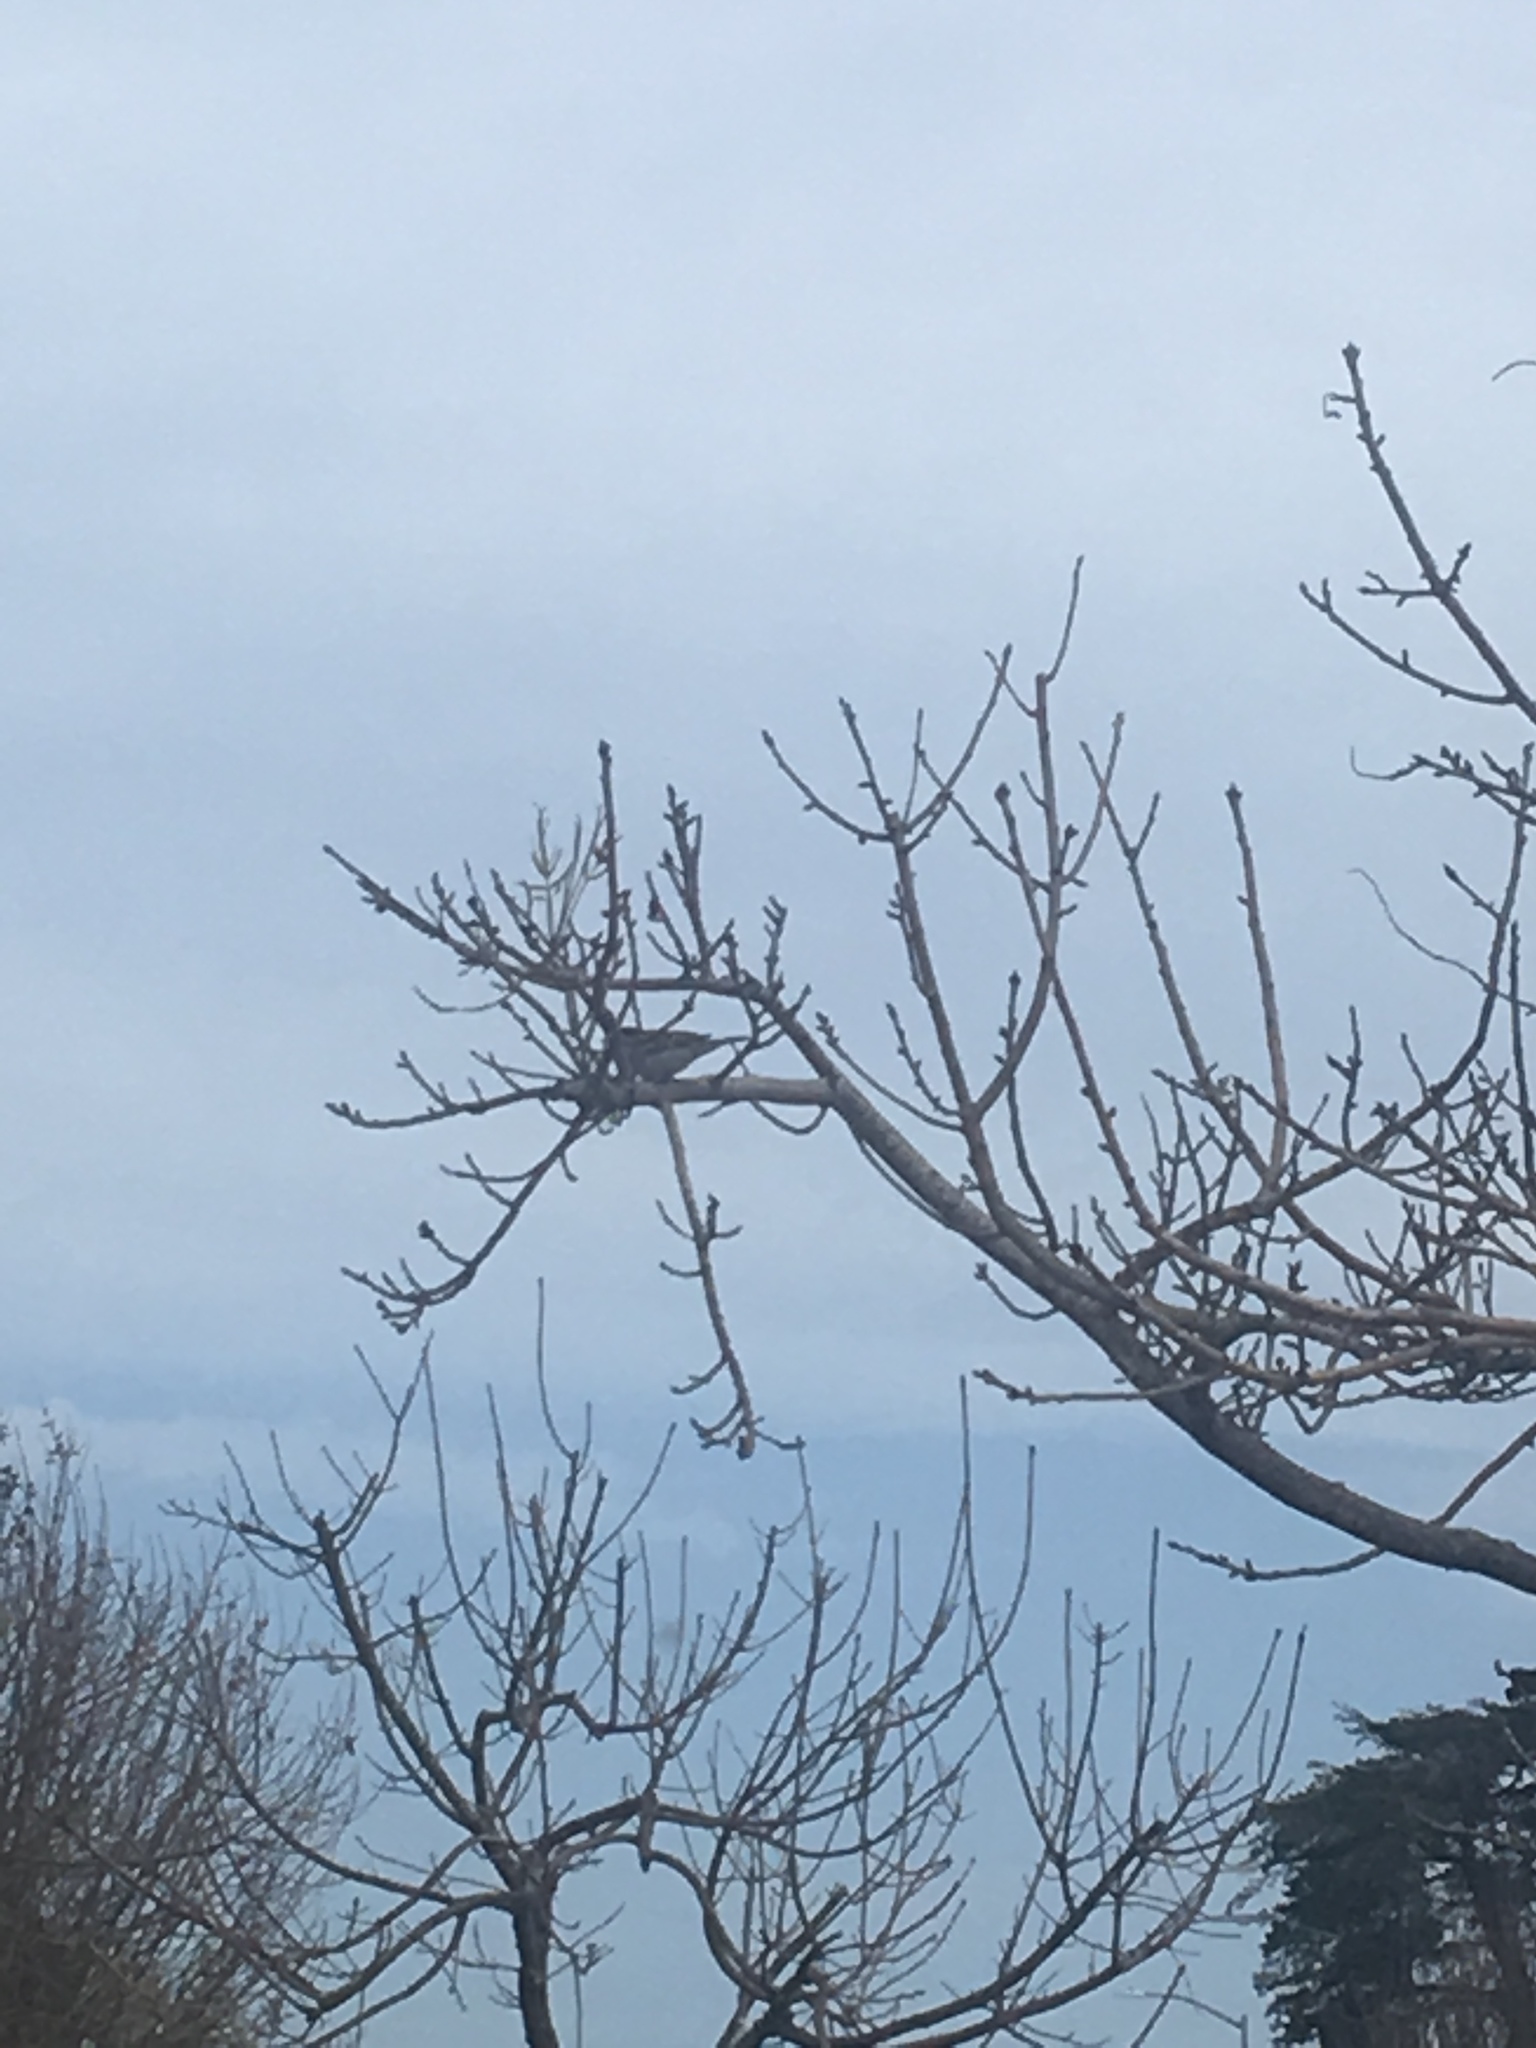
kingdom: Animalia
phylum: Chordata
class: Aves
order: Passeriformes
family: Passeridae
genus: Passer
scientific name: Passer domesticus
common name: House sparrow
